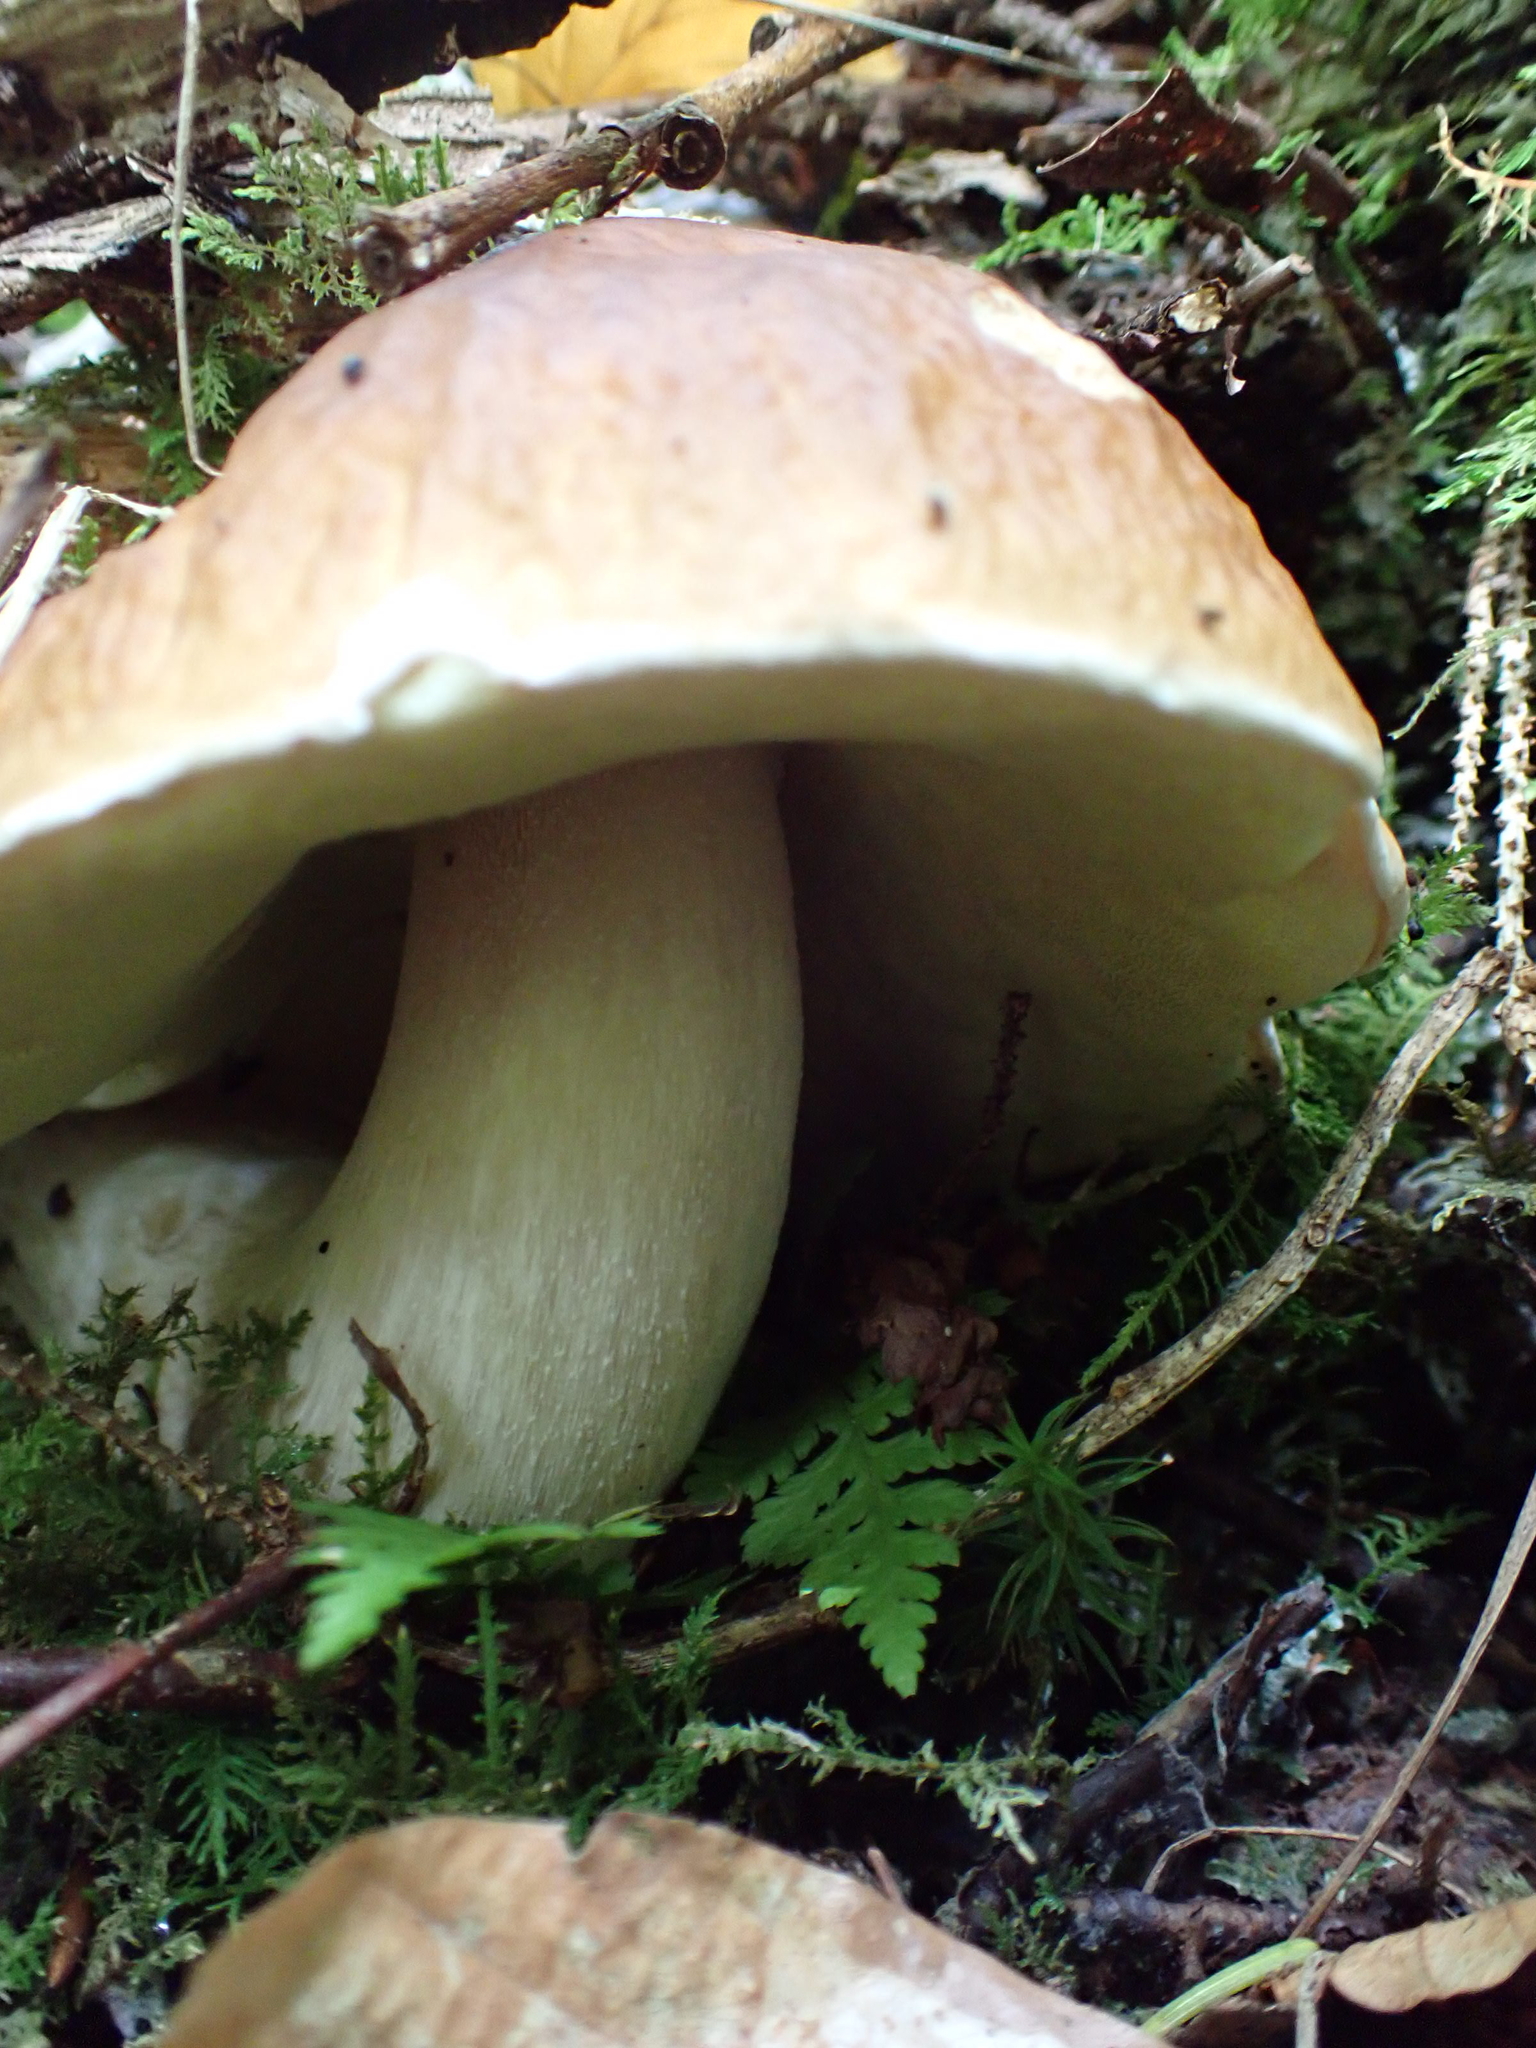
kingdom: Fungi
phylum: Basidiomycota
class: Agaricomycetes
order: Boletales
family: Boletaceae
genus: Boletus
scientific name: Boletus edulis
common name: Cep
